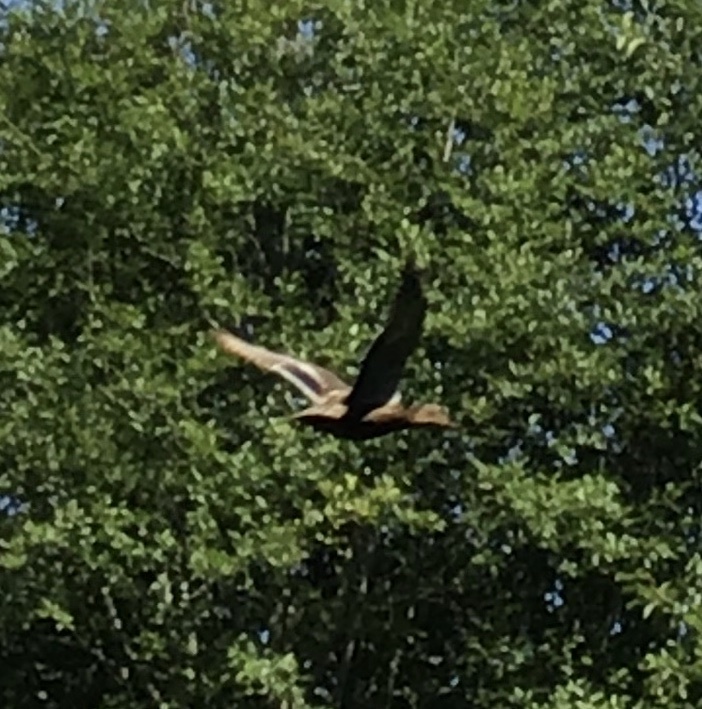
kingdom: Animalia
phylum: Chordata
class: Aves
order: Anseriformes
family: Anatidae
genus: Anas
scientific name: Anas platyrhynchos
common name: Mallard
